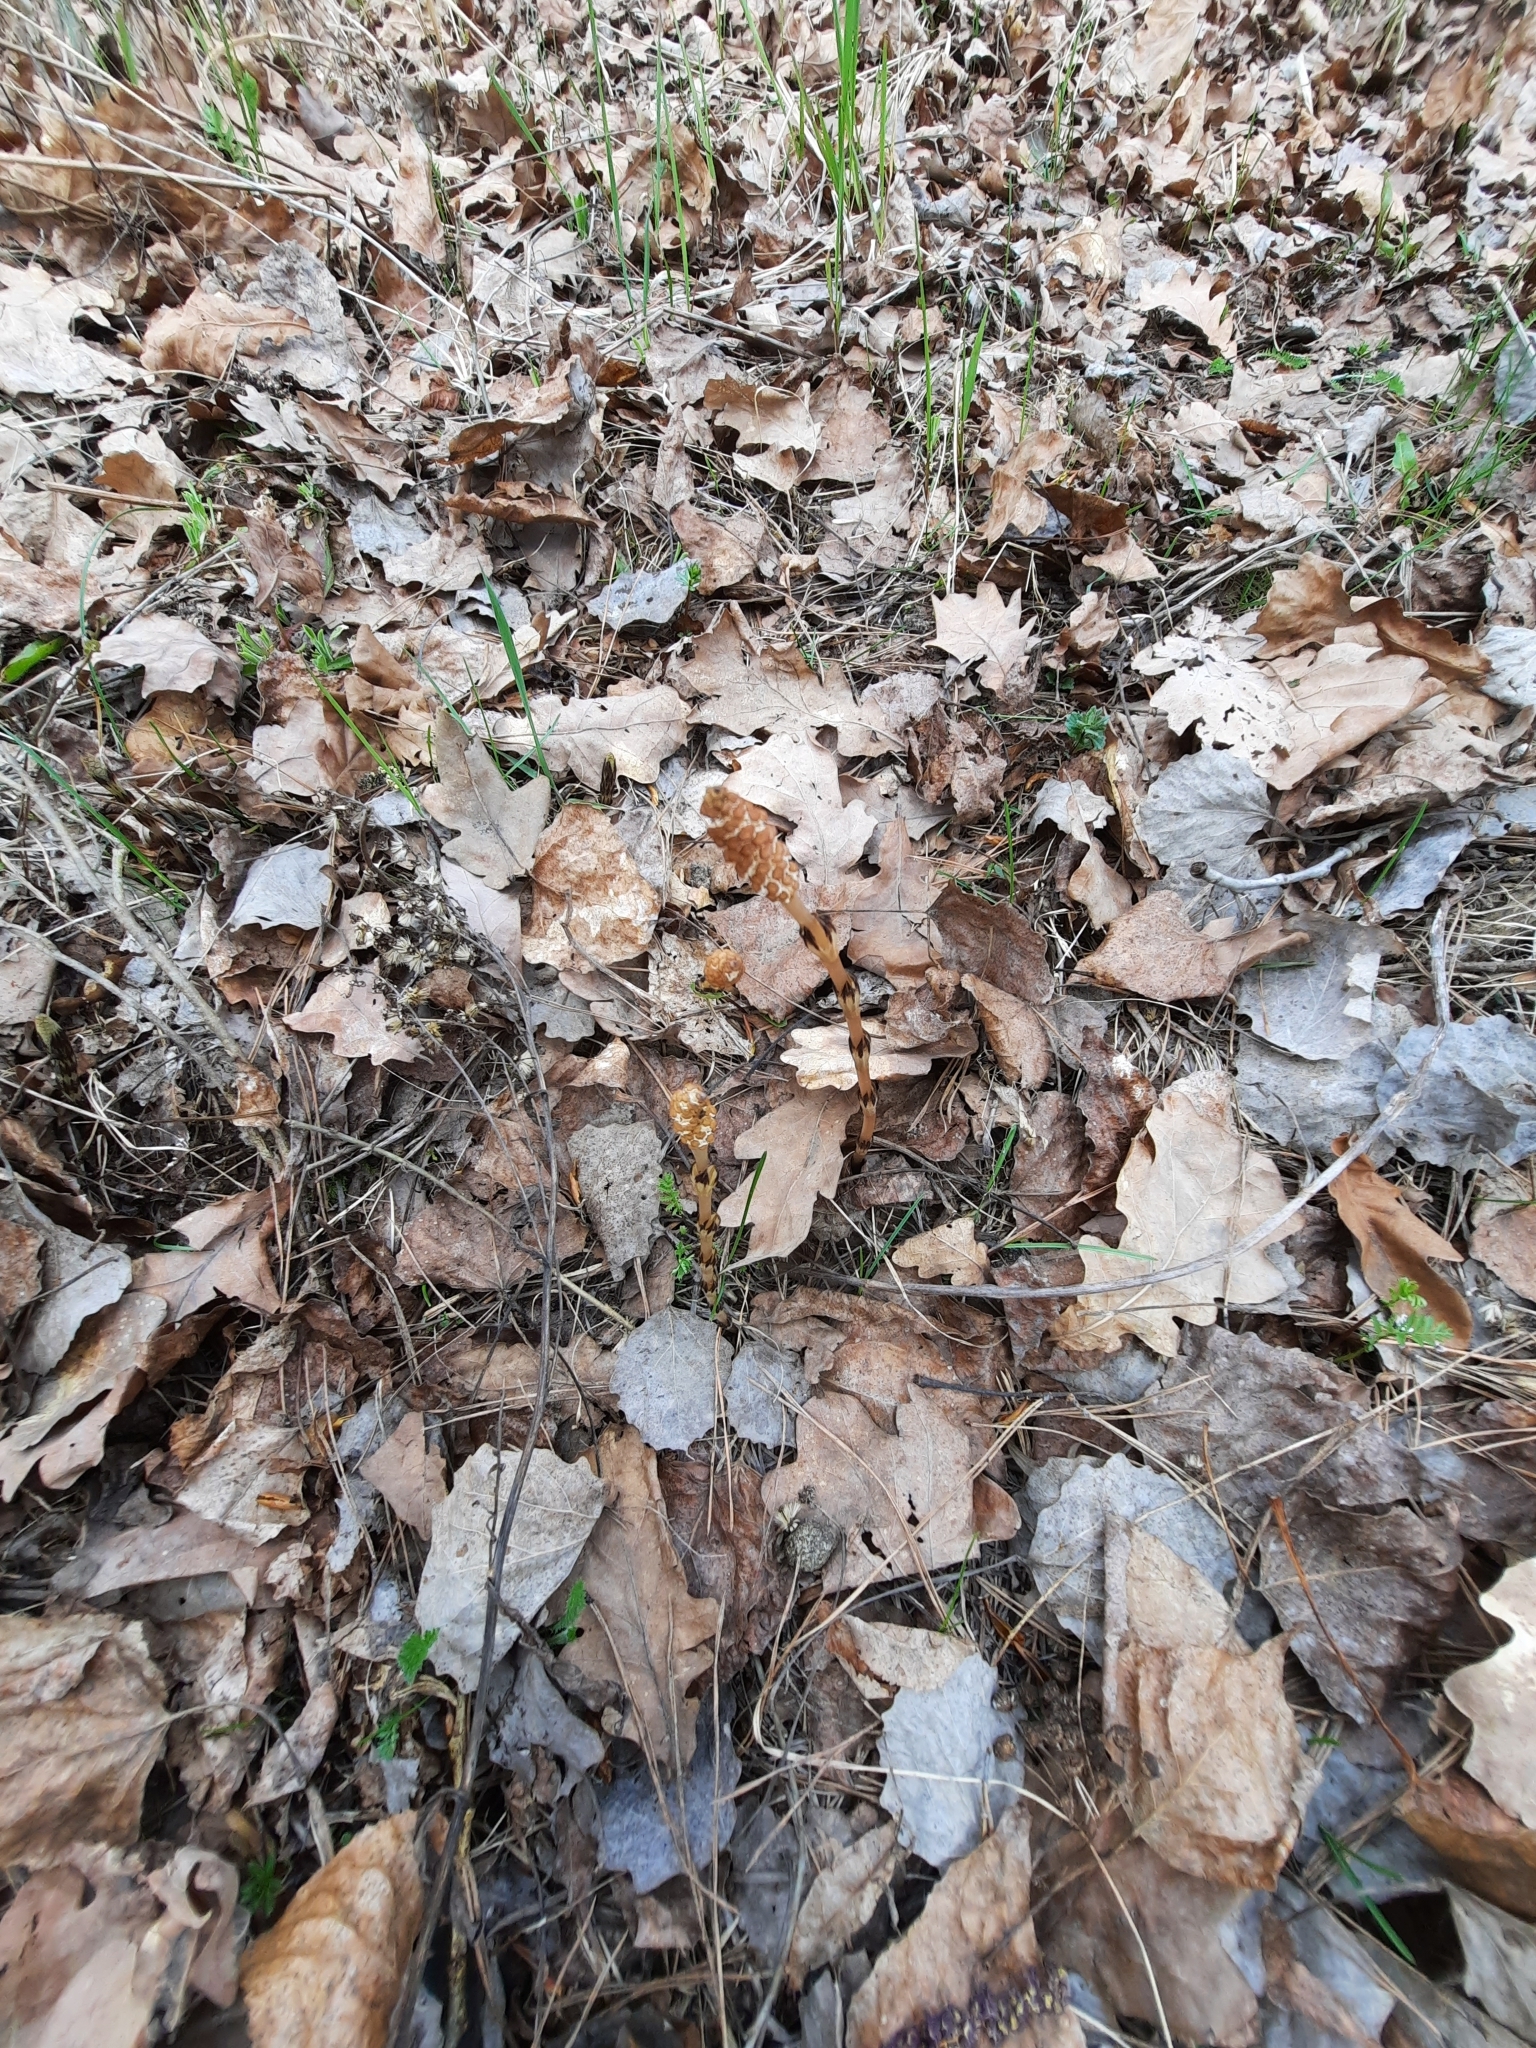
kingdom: Plantae
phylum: Tracheophyta
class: Polypodiopsida
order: Equisetales
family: Equisetaceae
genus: Equisetum
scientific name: Equisetum arvense
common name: Field horsetail
